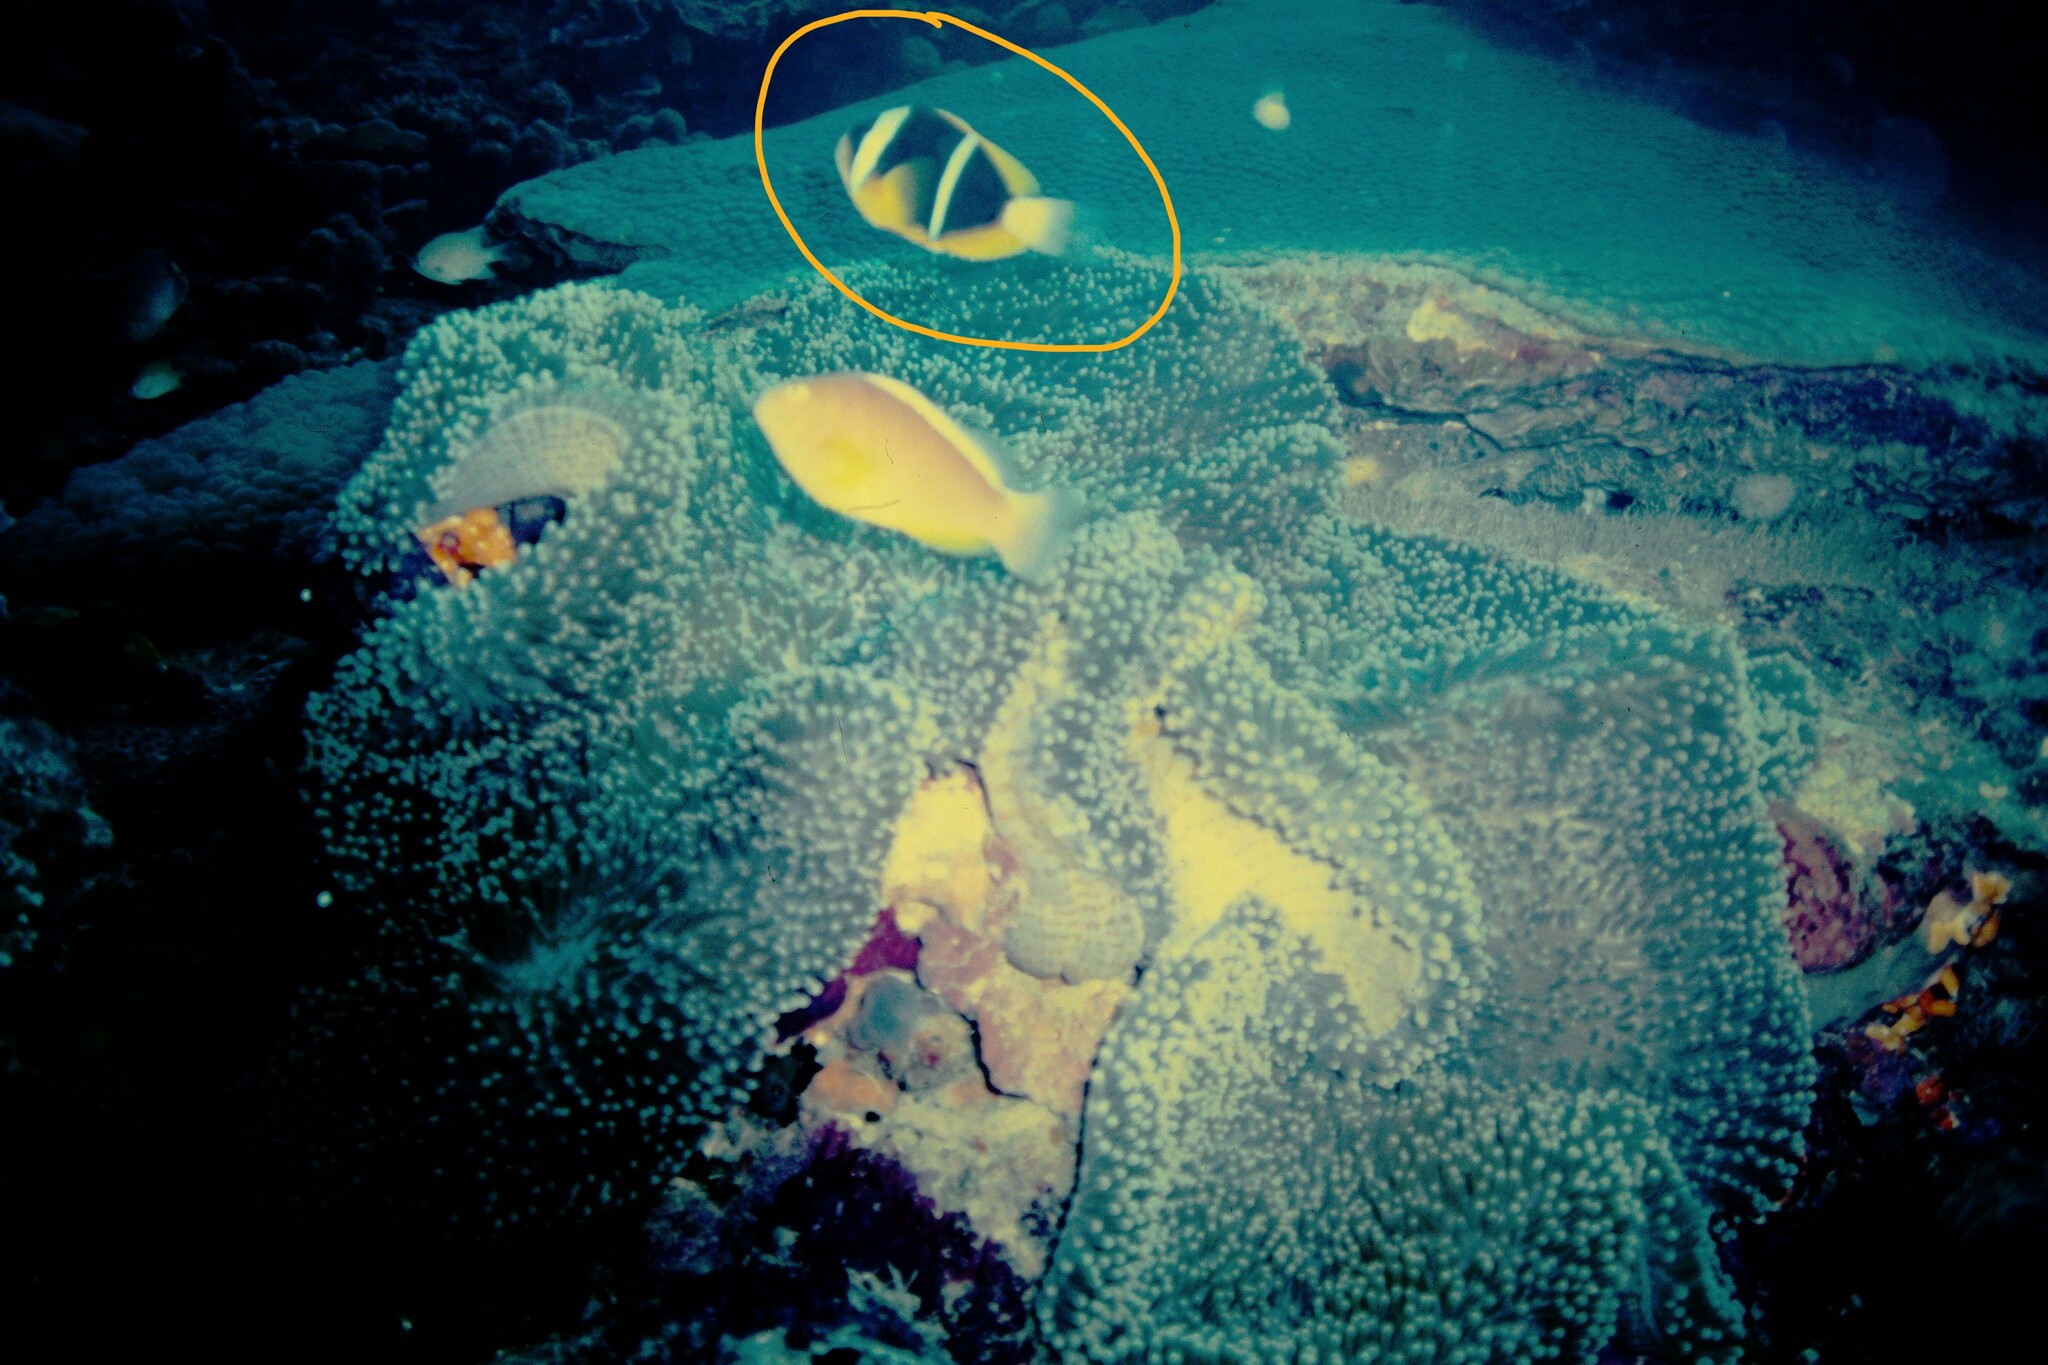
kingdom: Animalia
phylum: Chordata
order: Perciformes
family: Pomacentridae
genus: Amphiprion
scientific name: Amphiprion allardi
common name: Allard's anemonefish
